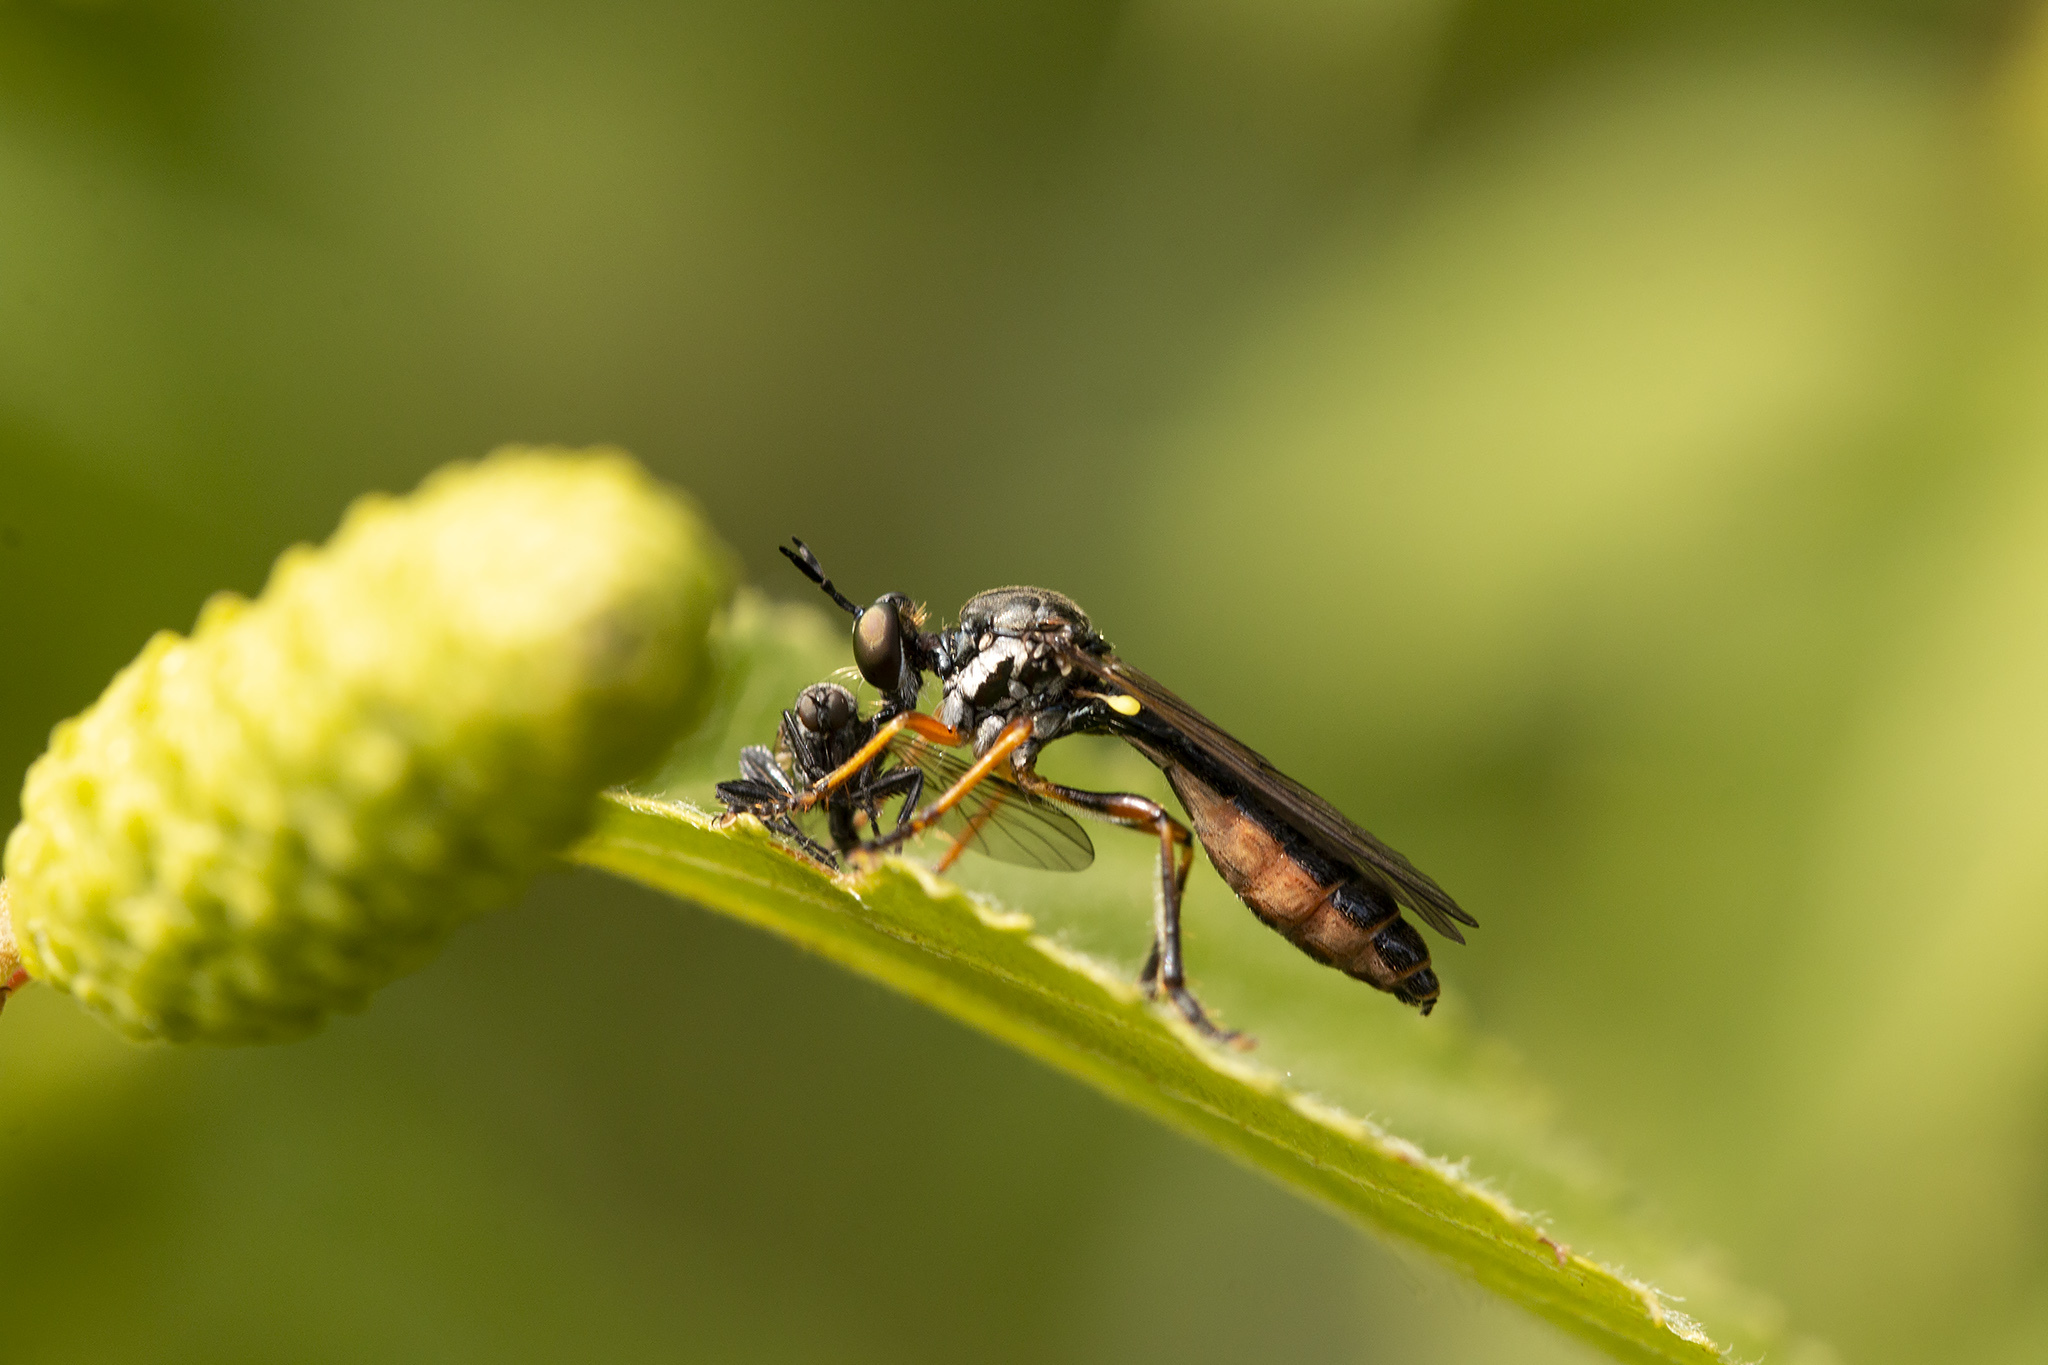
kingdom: Animalia
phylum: Arthropoda
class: Insecta
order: Diptera
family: Asilidae
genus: Dioctria
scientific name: Dioctria hyalipennis
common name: Stripe-legged robberfly
